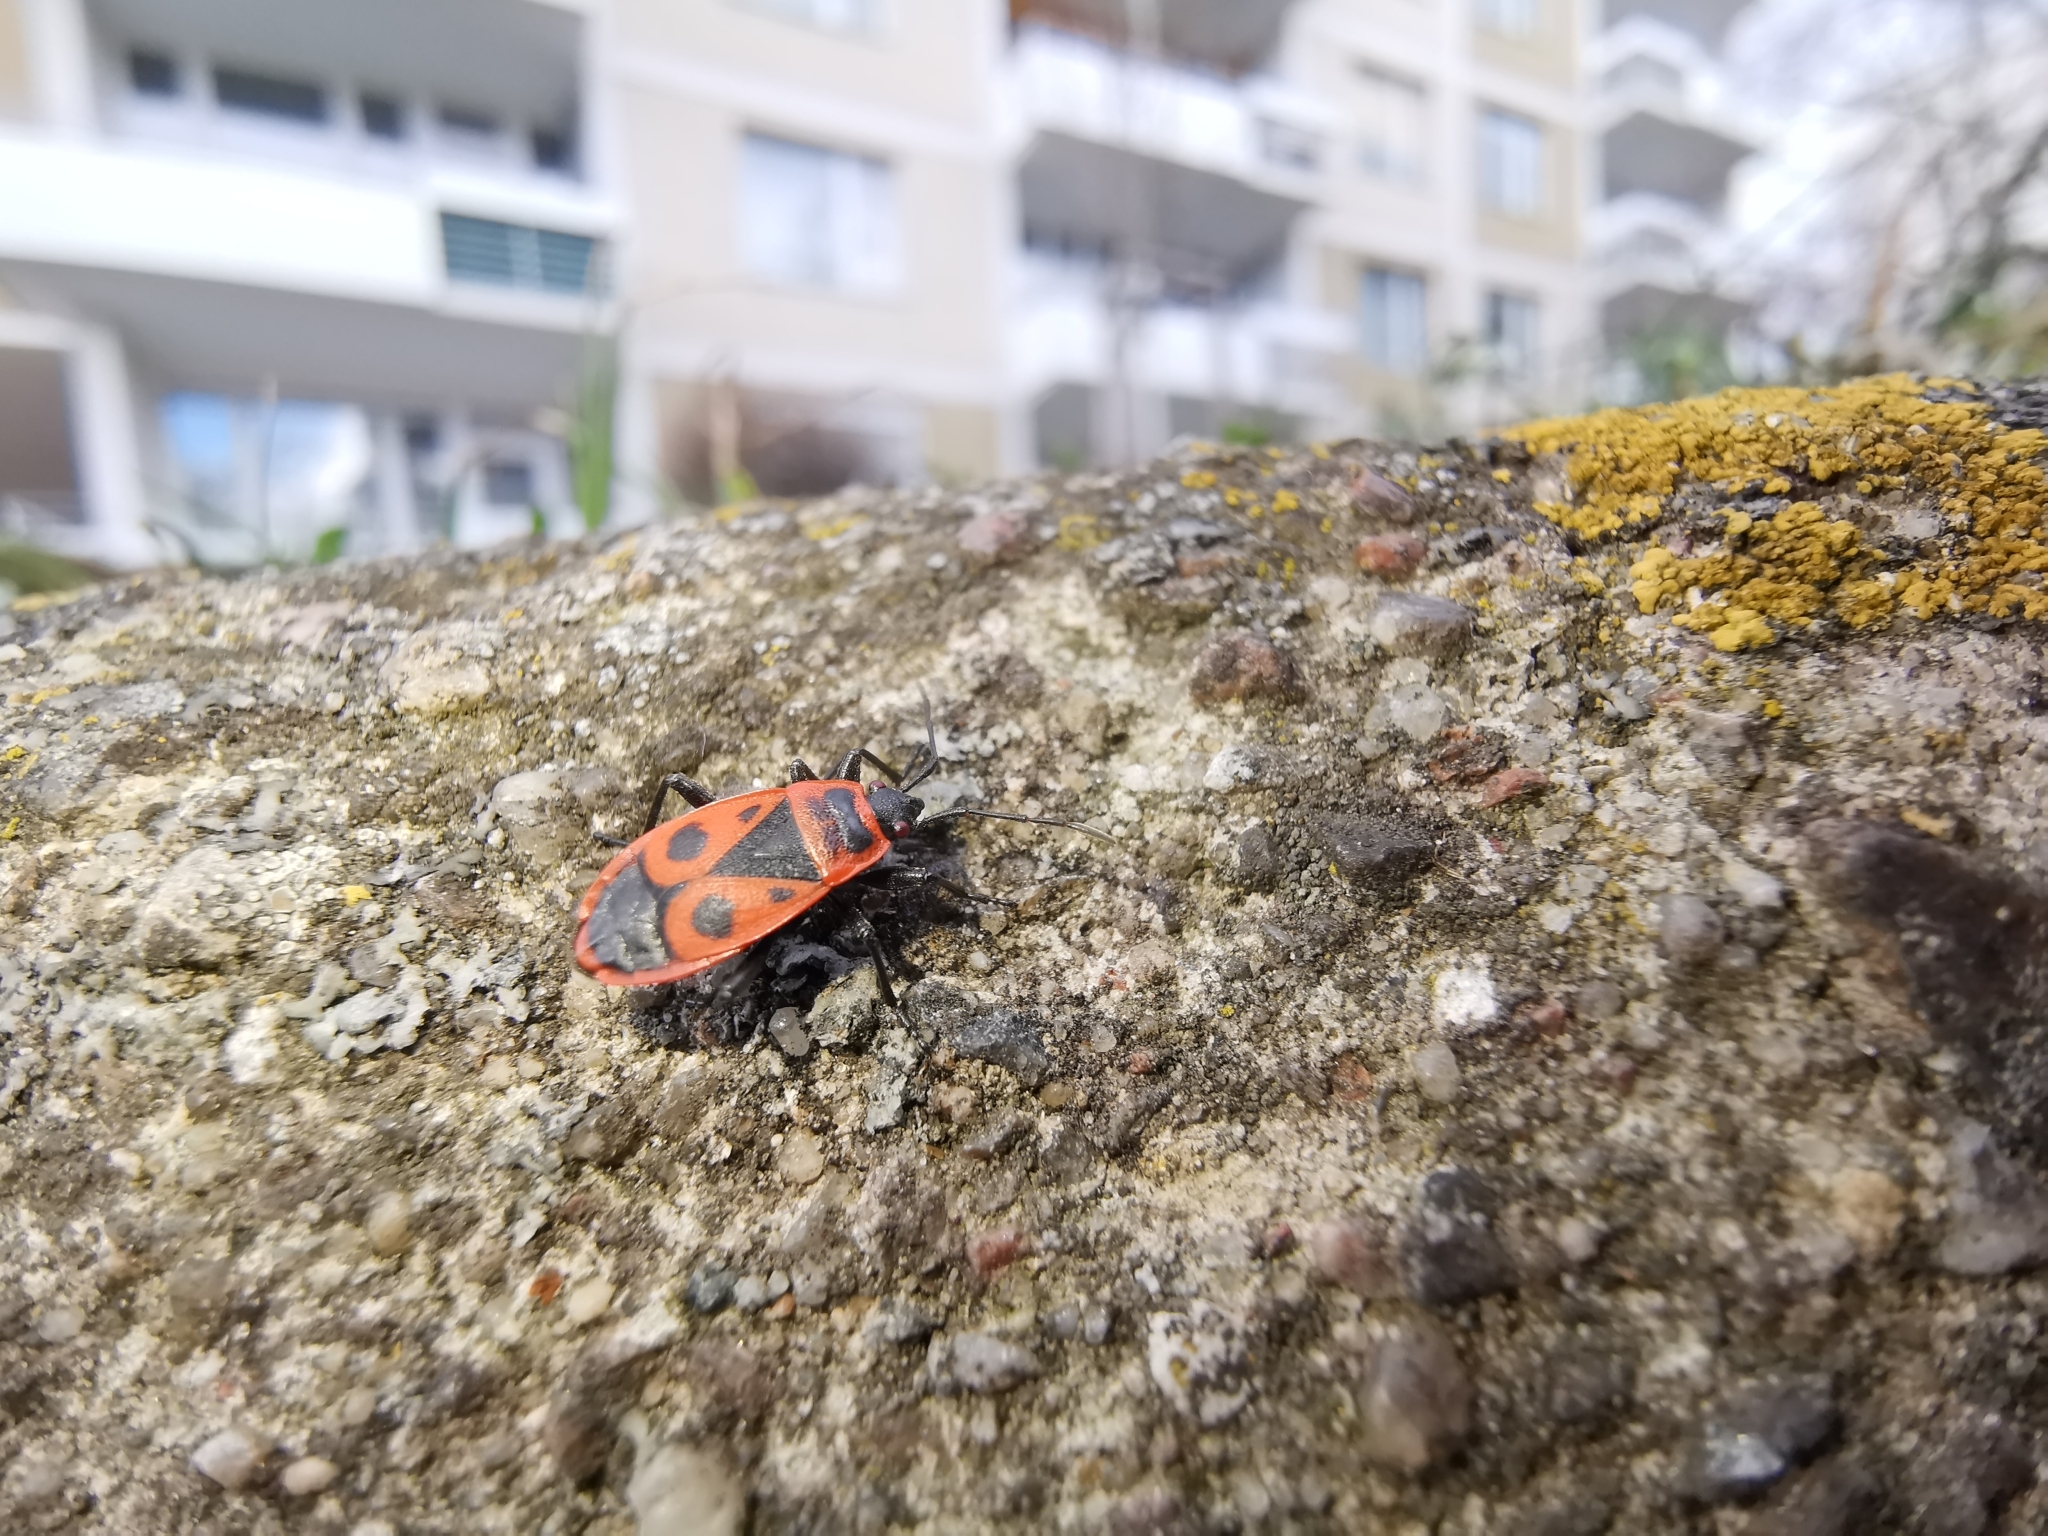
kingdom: Animalia
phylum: Arthropoda
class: Insecta
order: Hemiptera
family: Pyrrhocoridae
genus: Pyrrhocoris
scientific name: Pyrrhocoris apterus
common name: Firebug
